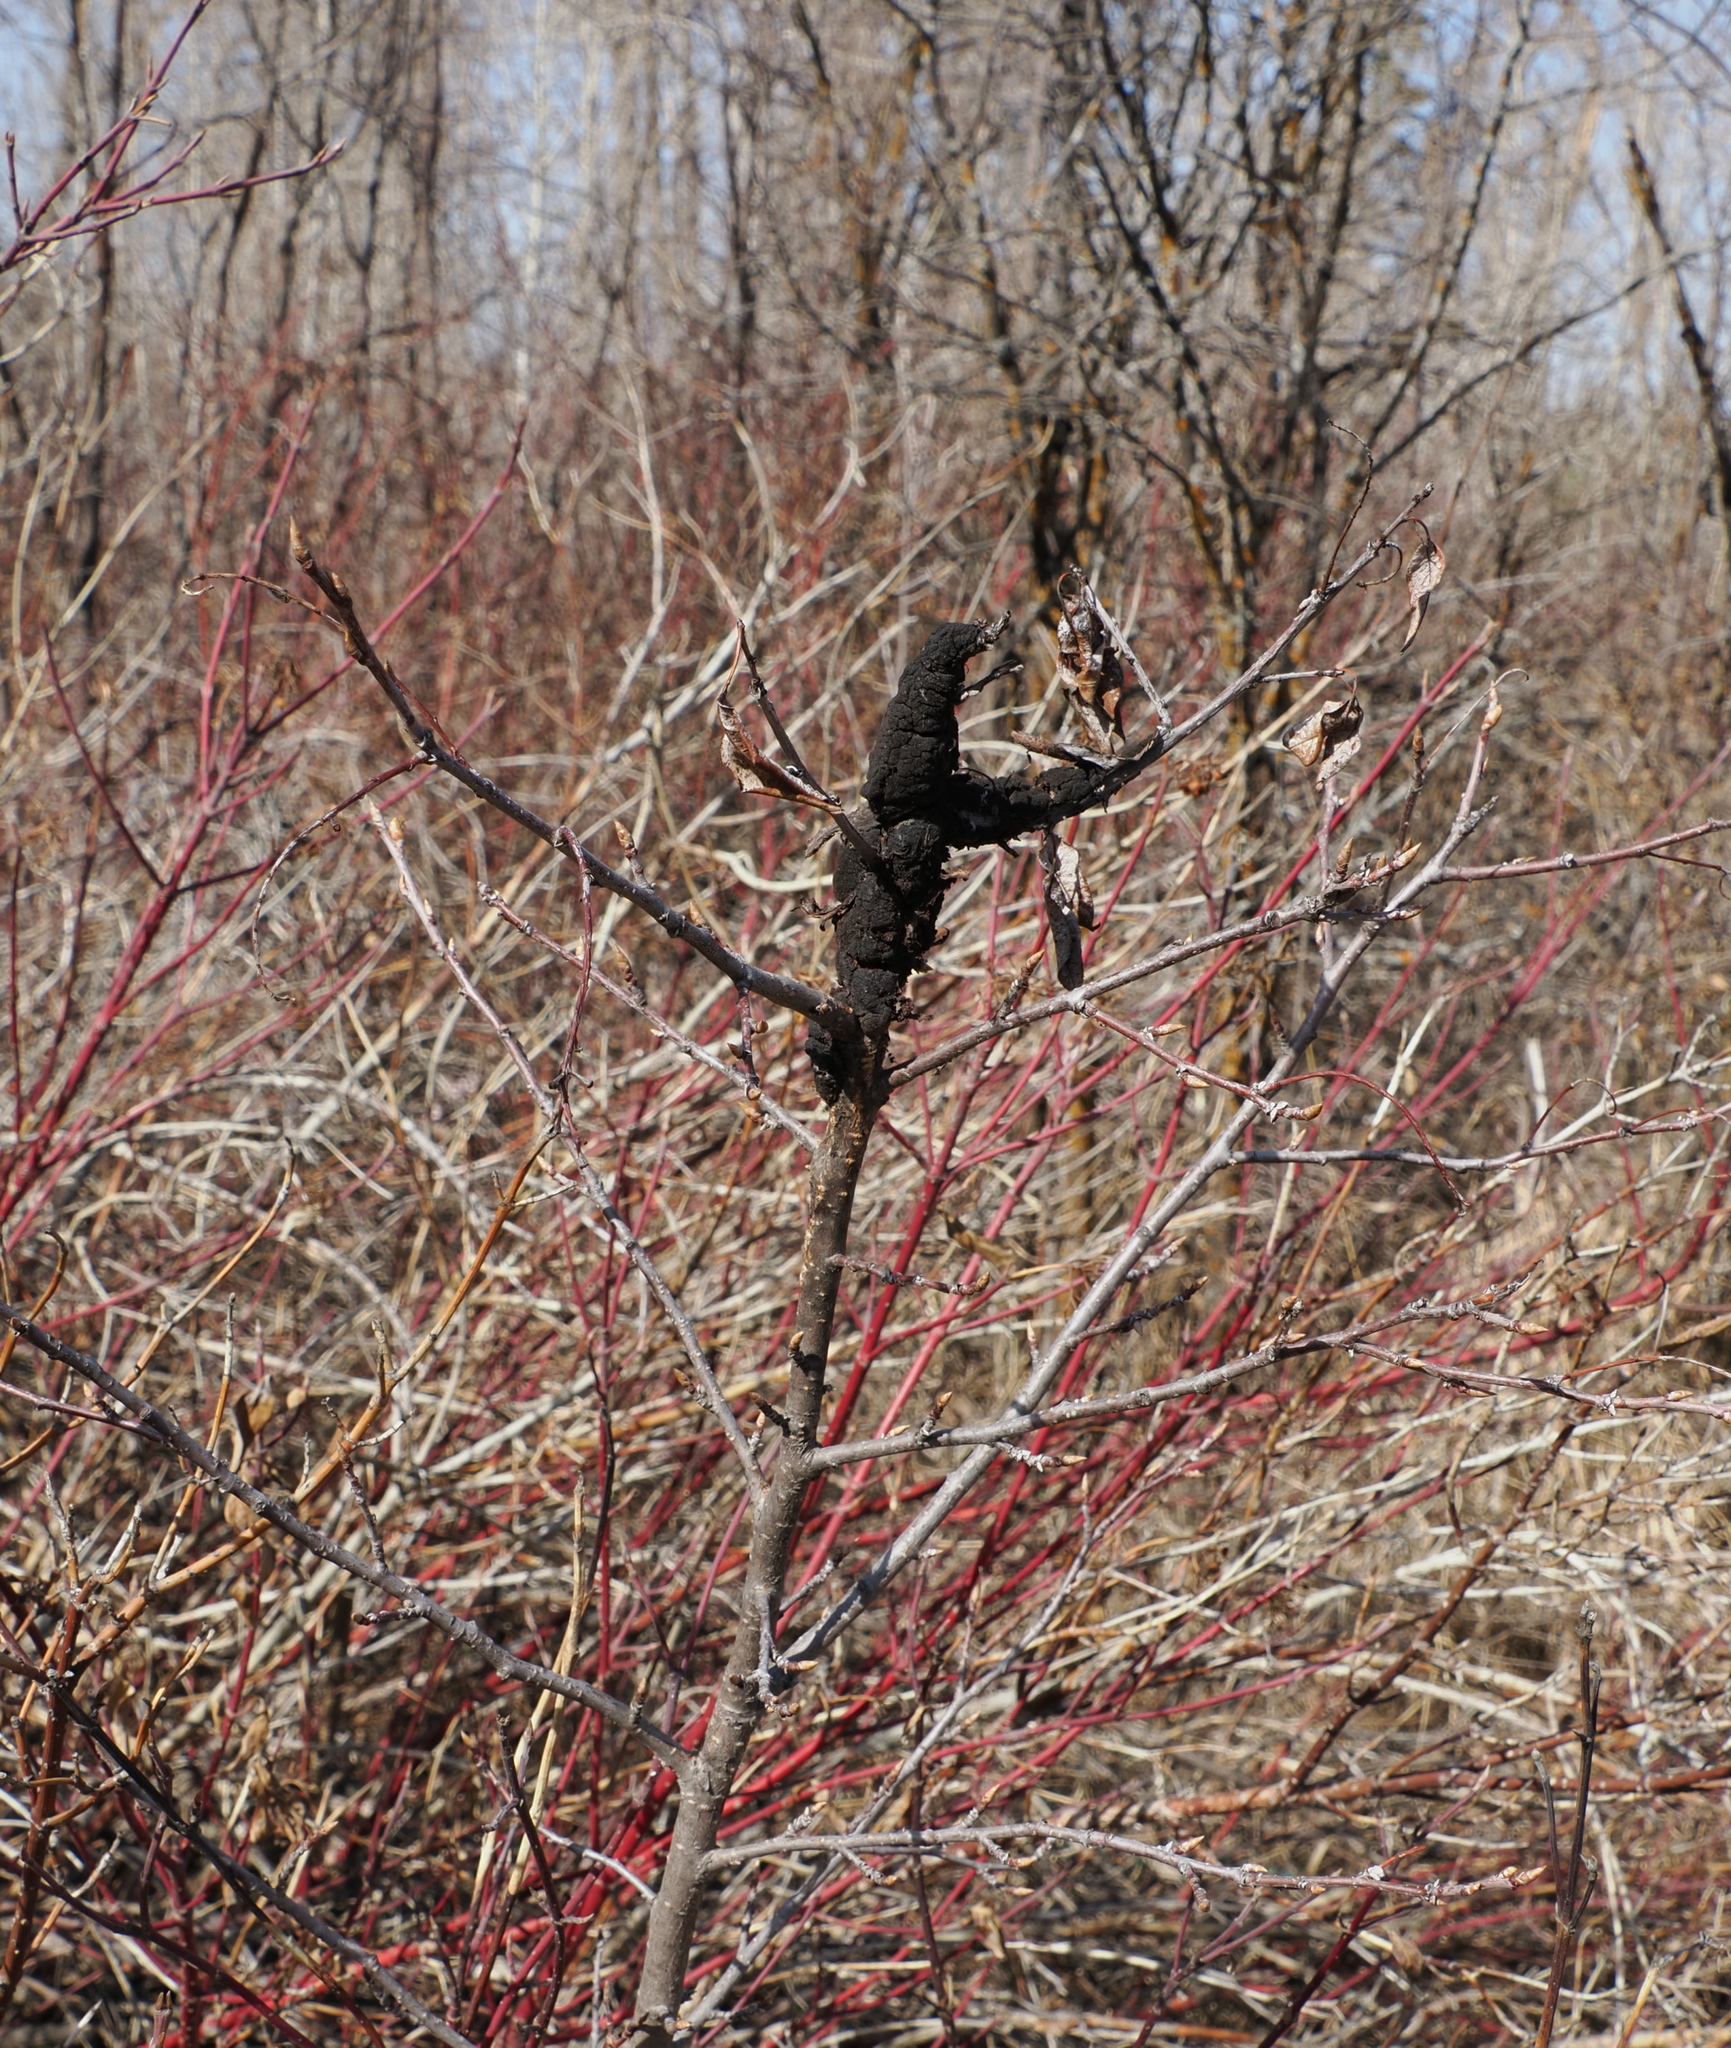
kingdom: Fungi
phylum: Ascomycota
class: Dothideomycetes
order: Venturiales
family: Venturiaceae
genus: Apiosporina
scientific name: Apiosporina morbosa
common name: Black knot
